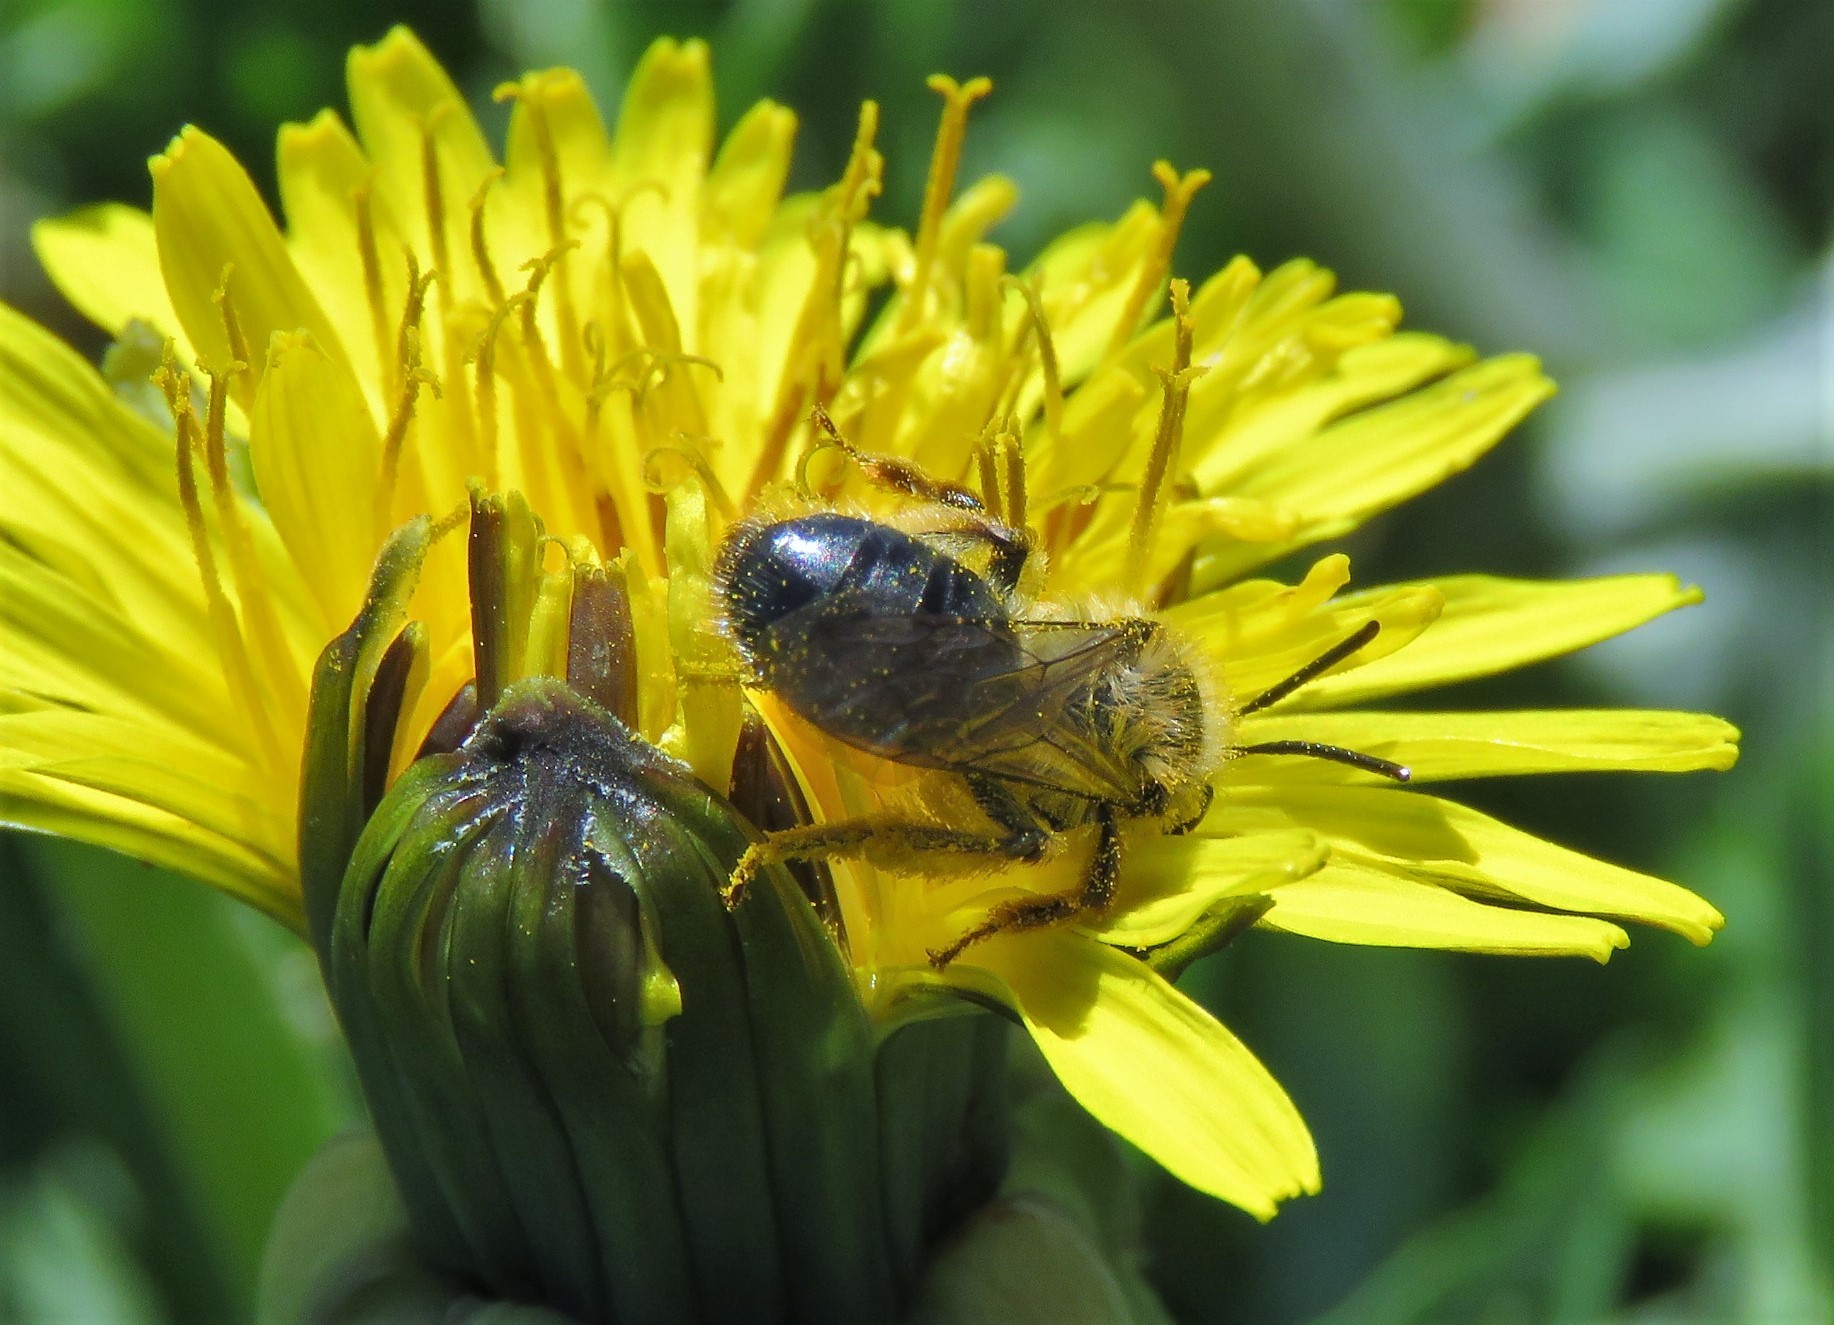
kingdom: Animalia
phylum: Arthropoda
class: Insecta
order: Hymenoptera
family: Andrenidae
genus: Andrena
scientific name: Andrena
